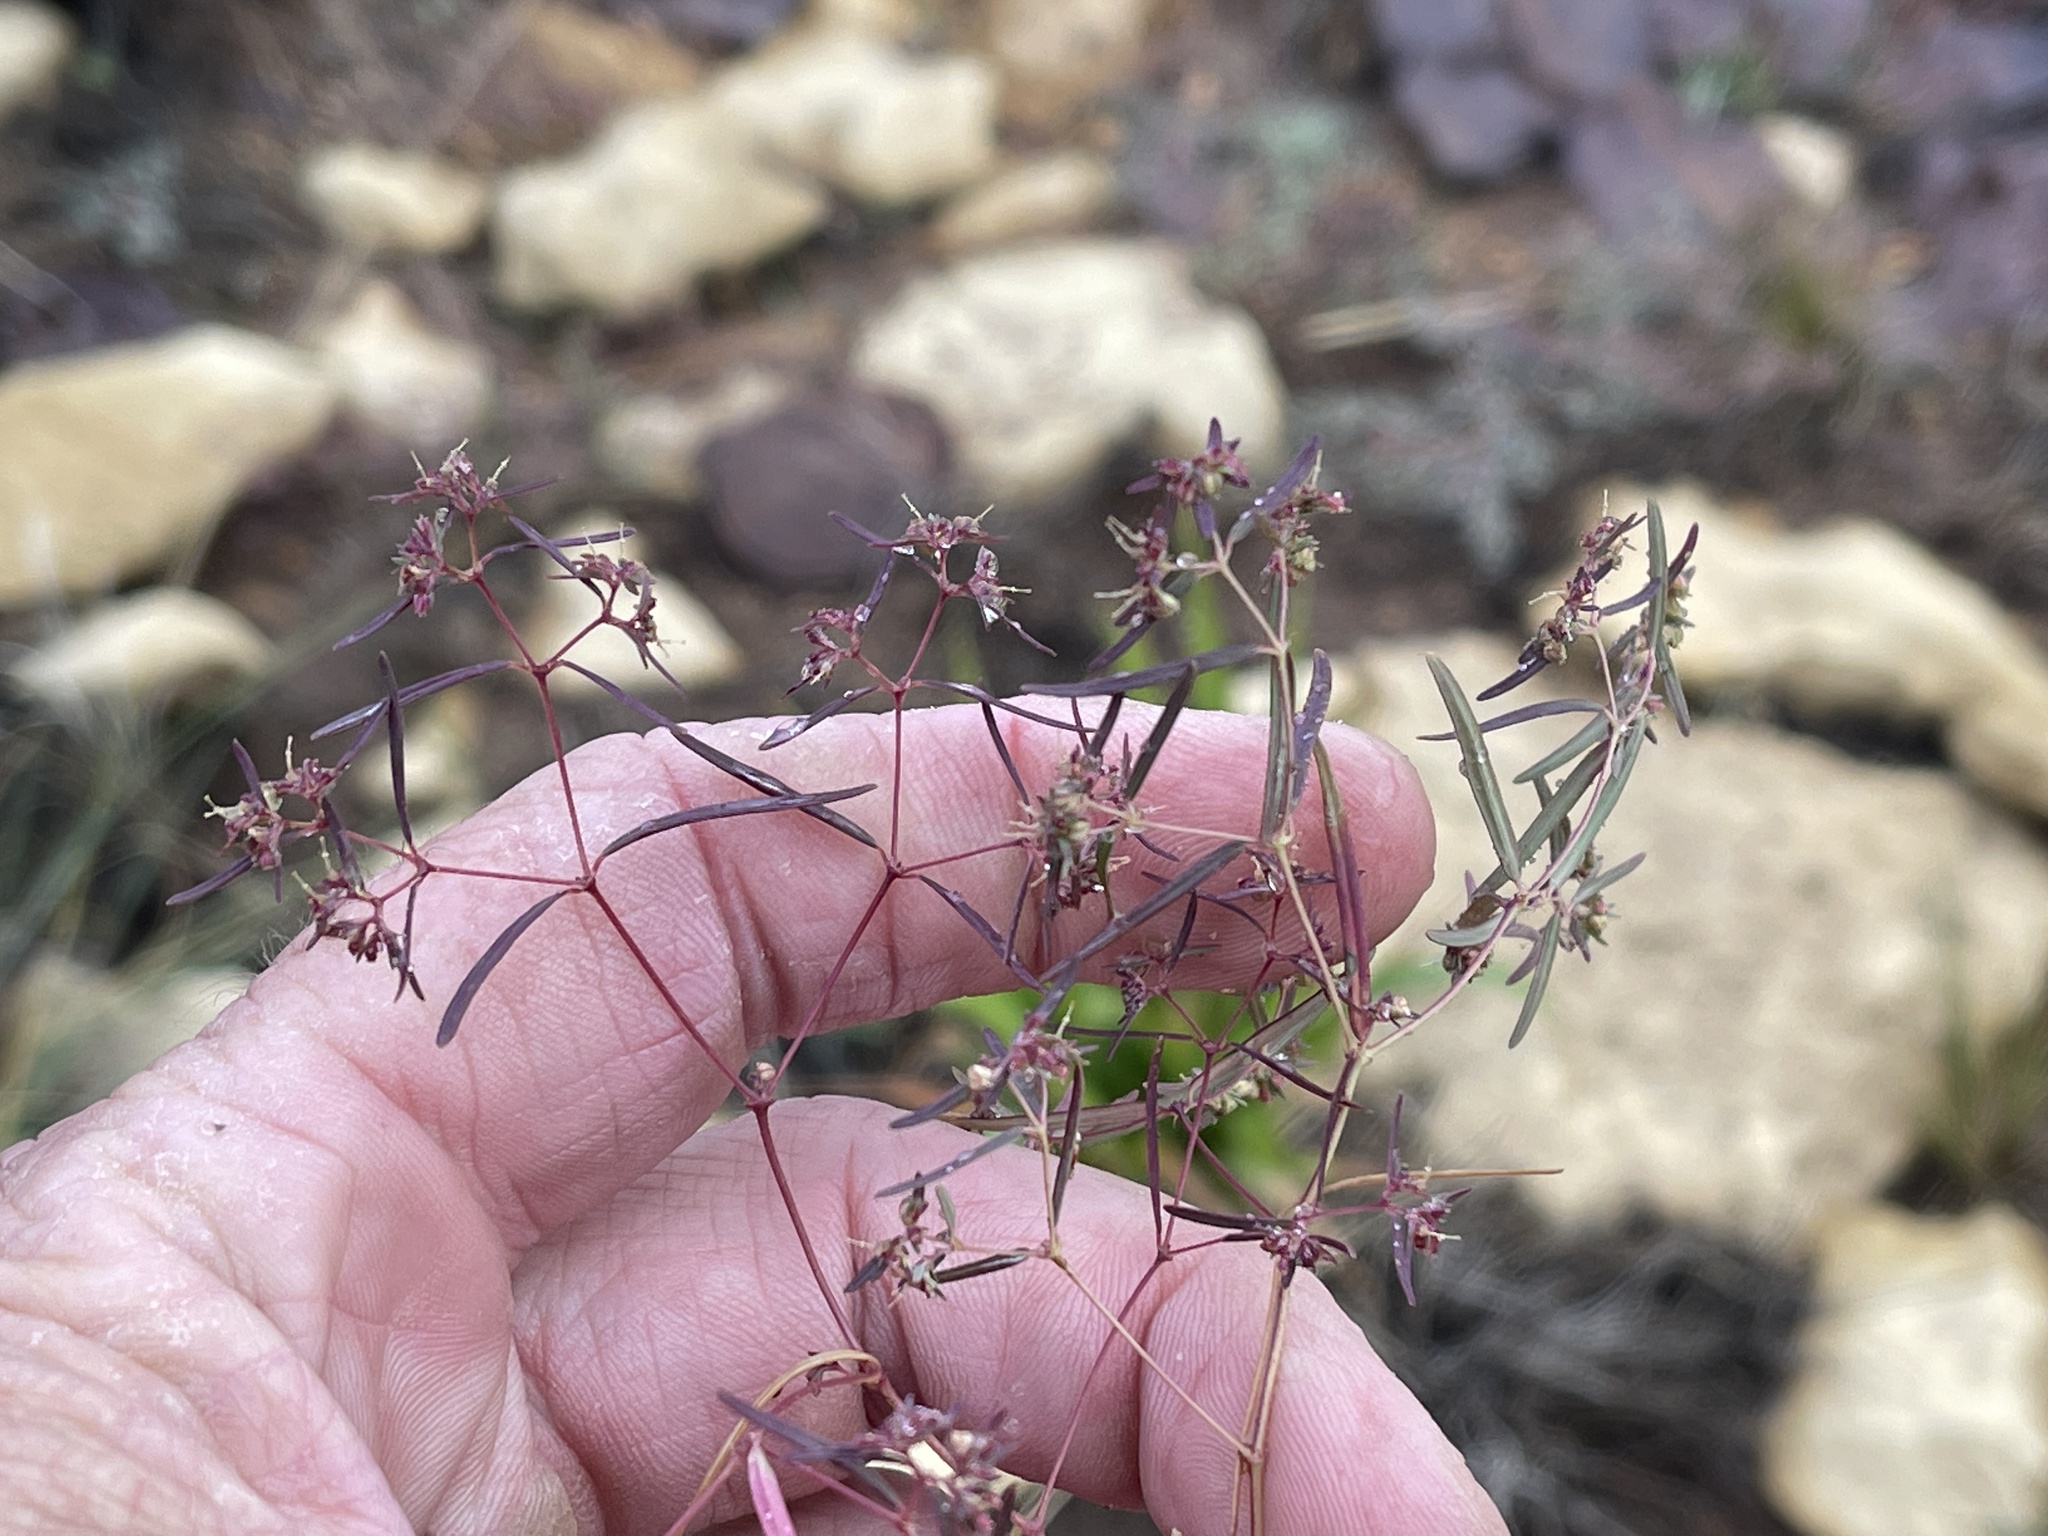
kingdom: Plantae
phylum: Tracheophyta
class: Magnoliopsida
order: Malpighiales
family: Euphorbiaceae
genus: Euphorbia
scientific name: Euphorbia revoluta
